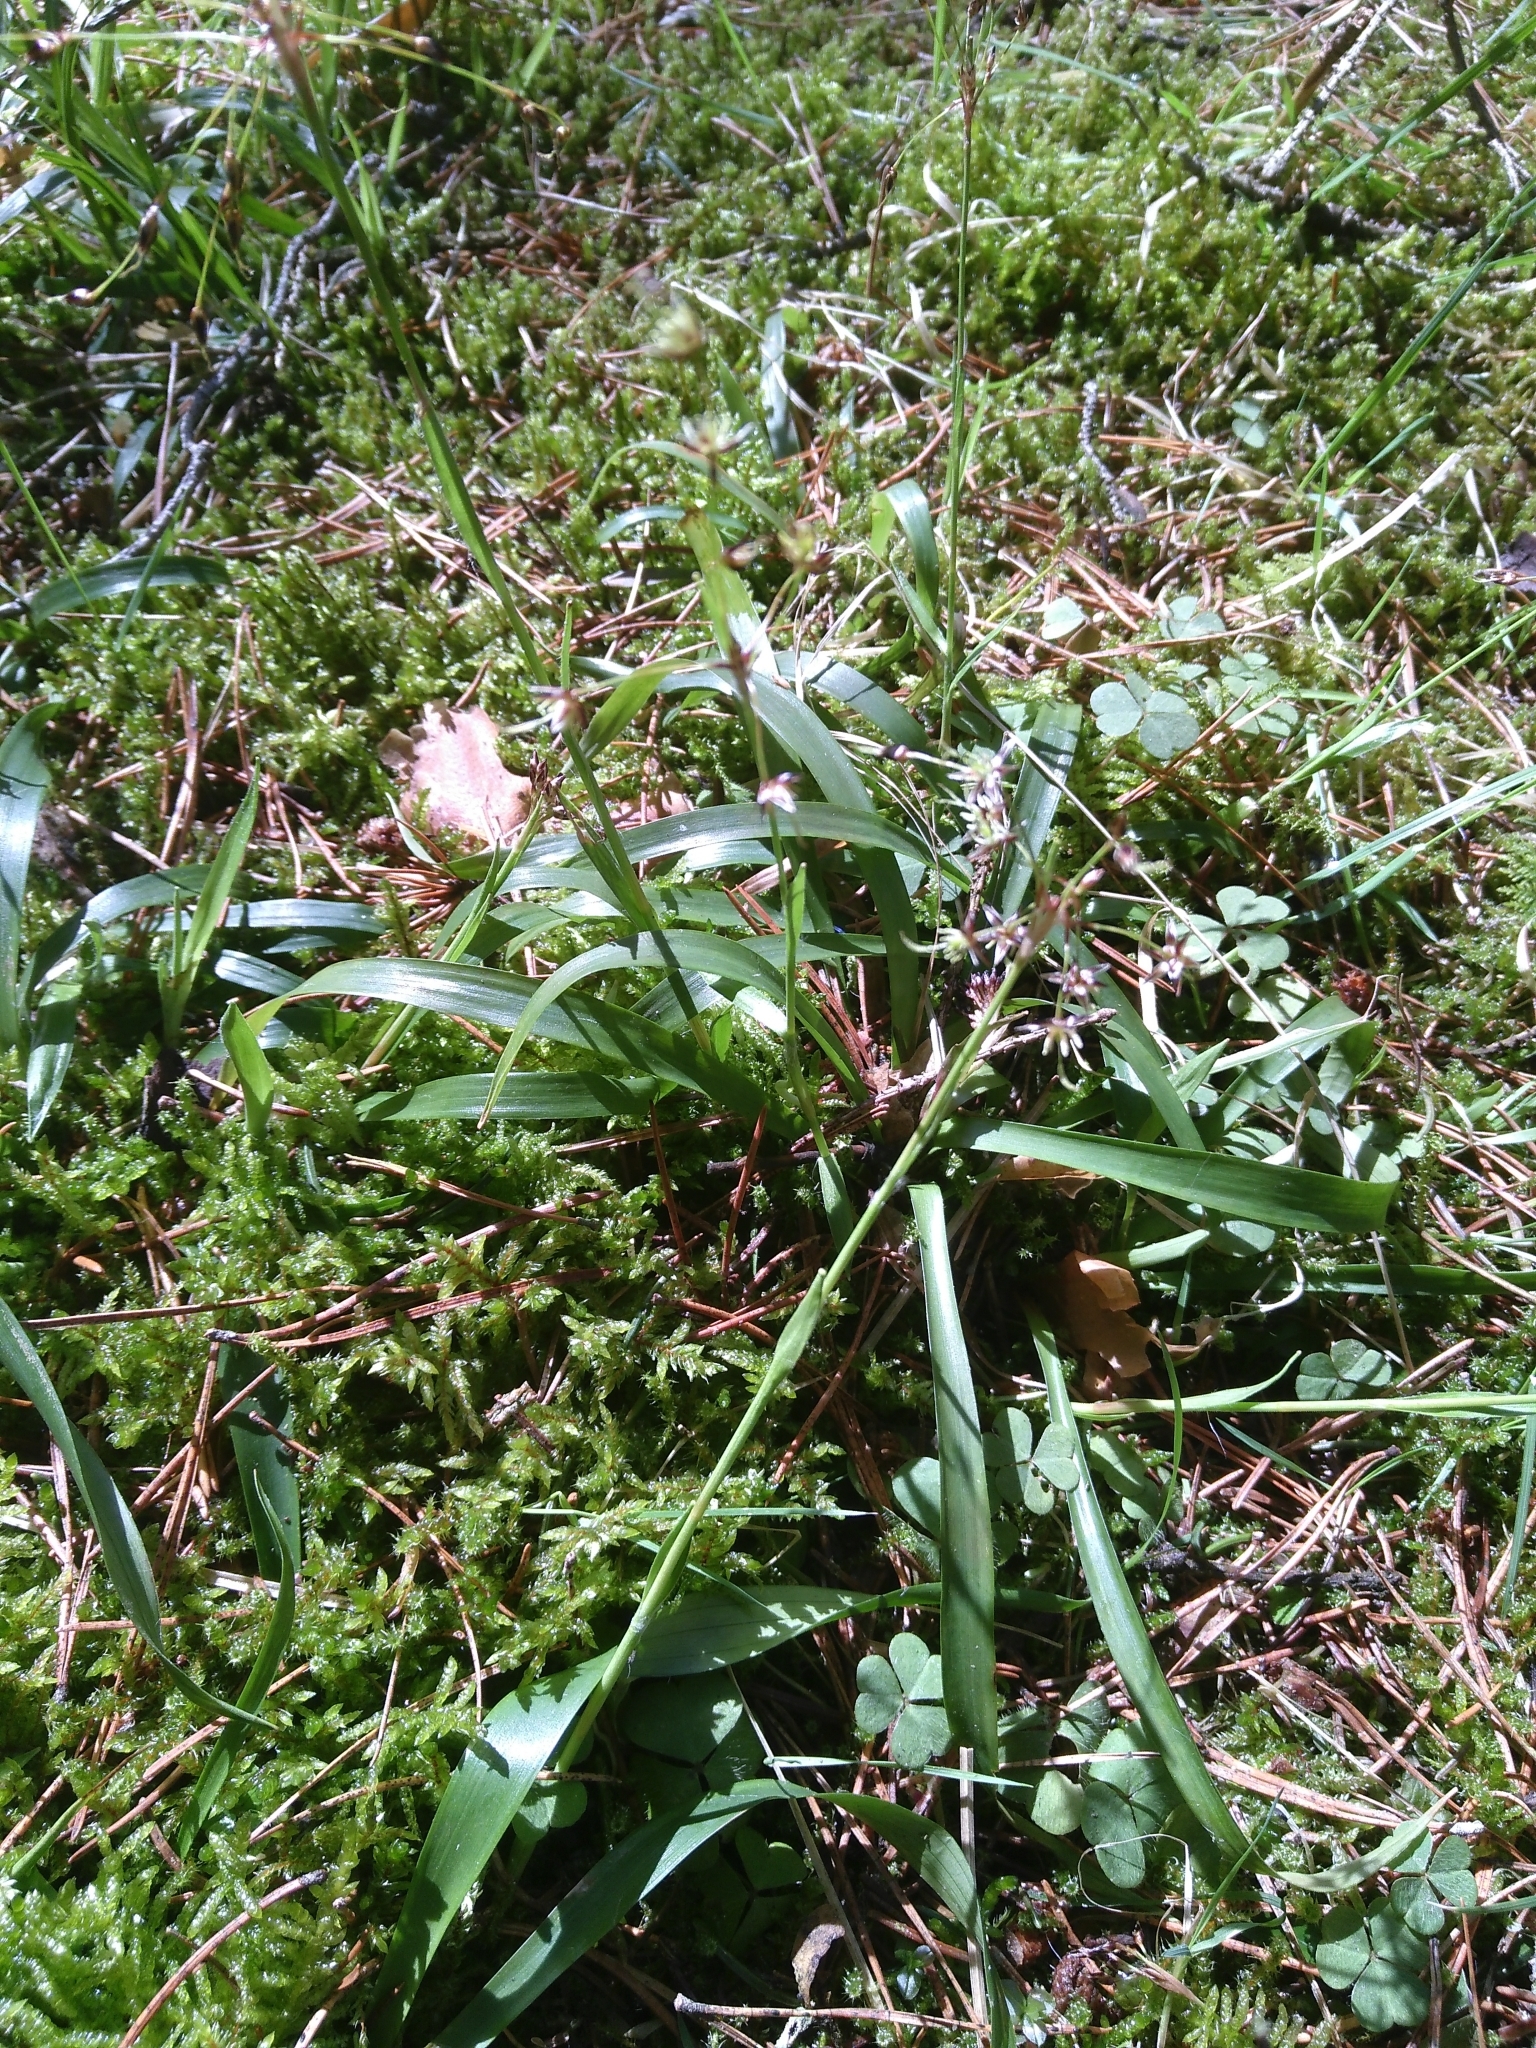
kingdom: Plantae
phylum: Tracheophyta
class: Liliopsida
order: Poales
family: Juncaceae
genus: Luzula
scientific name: Luzula pilosa
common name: Hairy wood-rush
